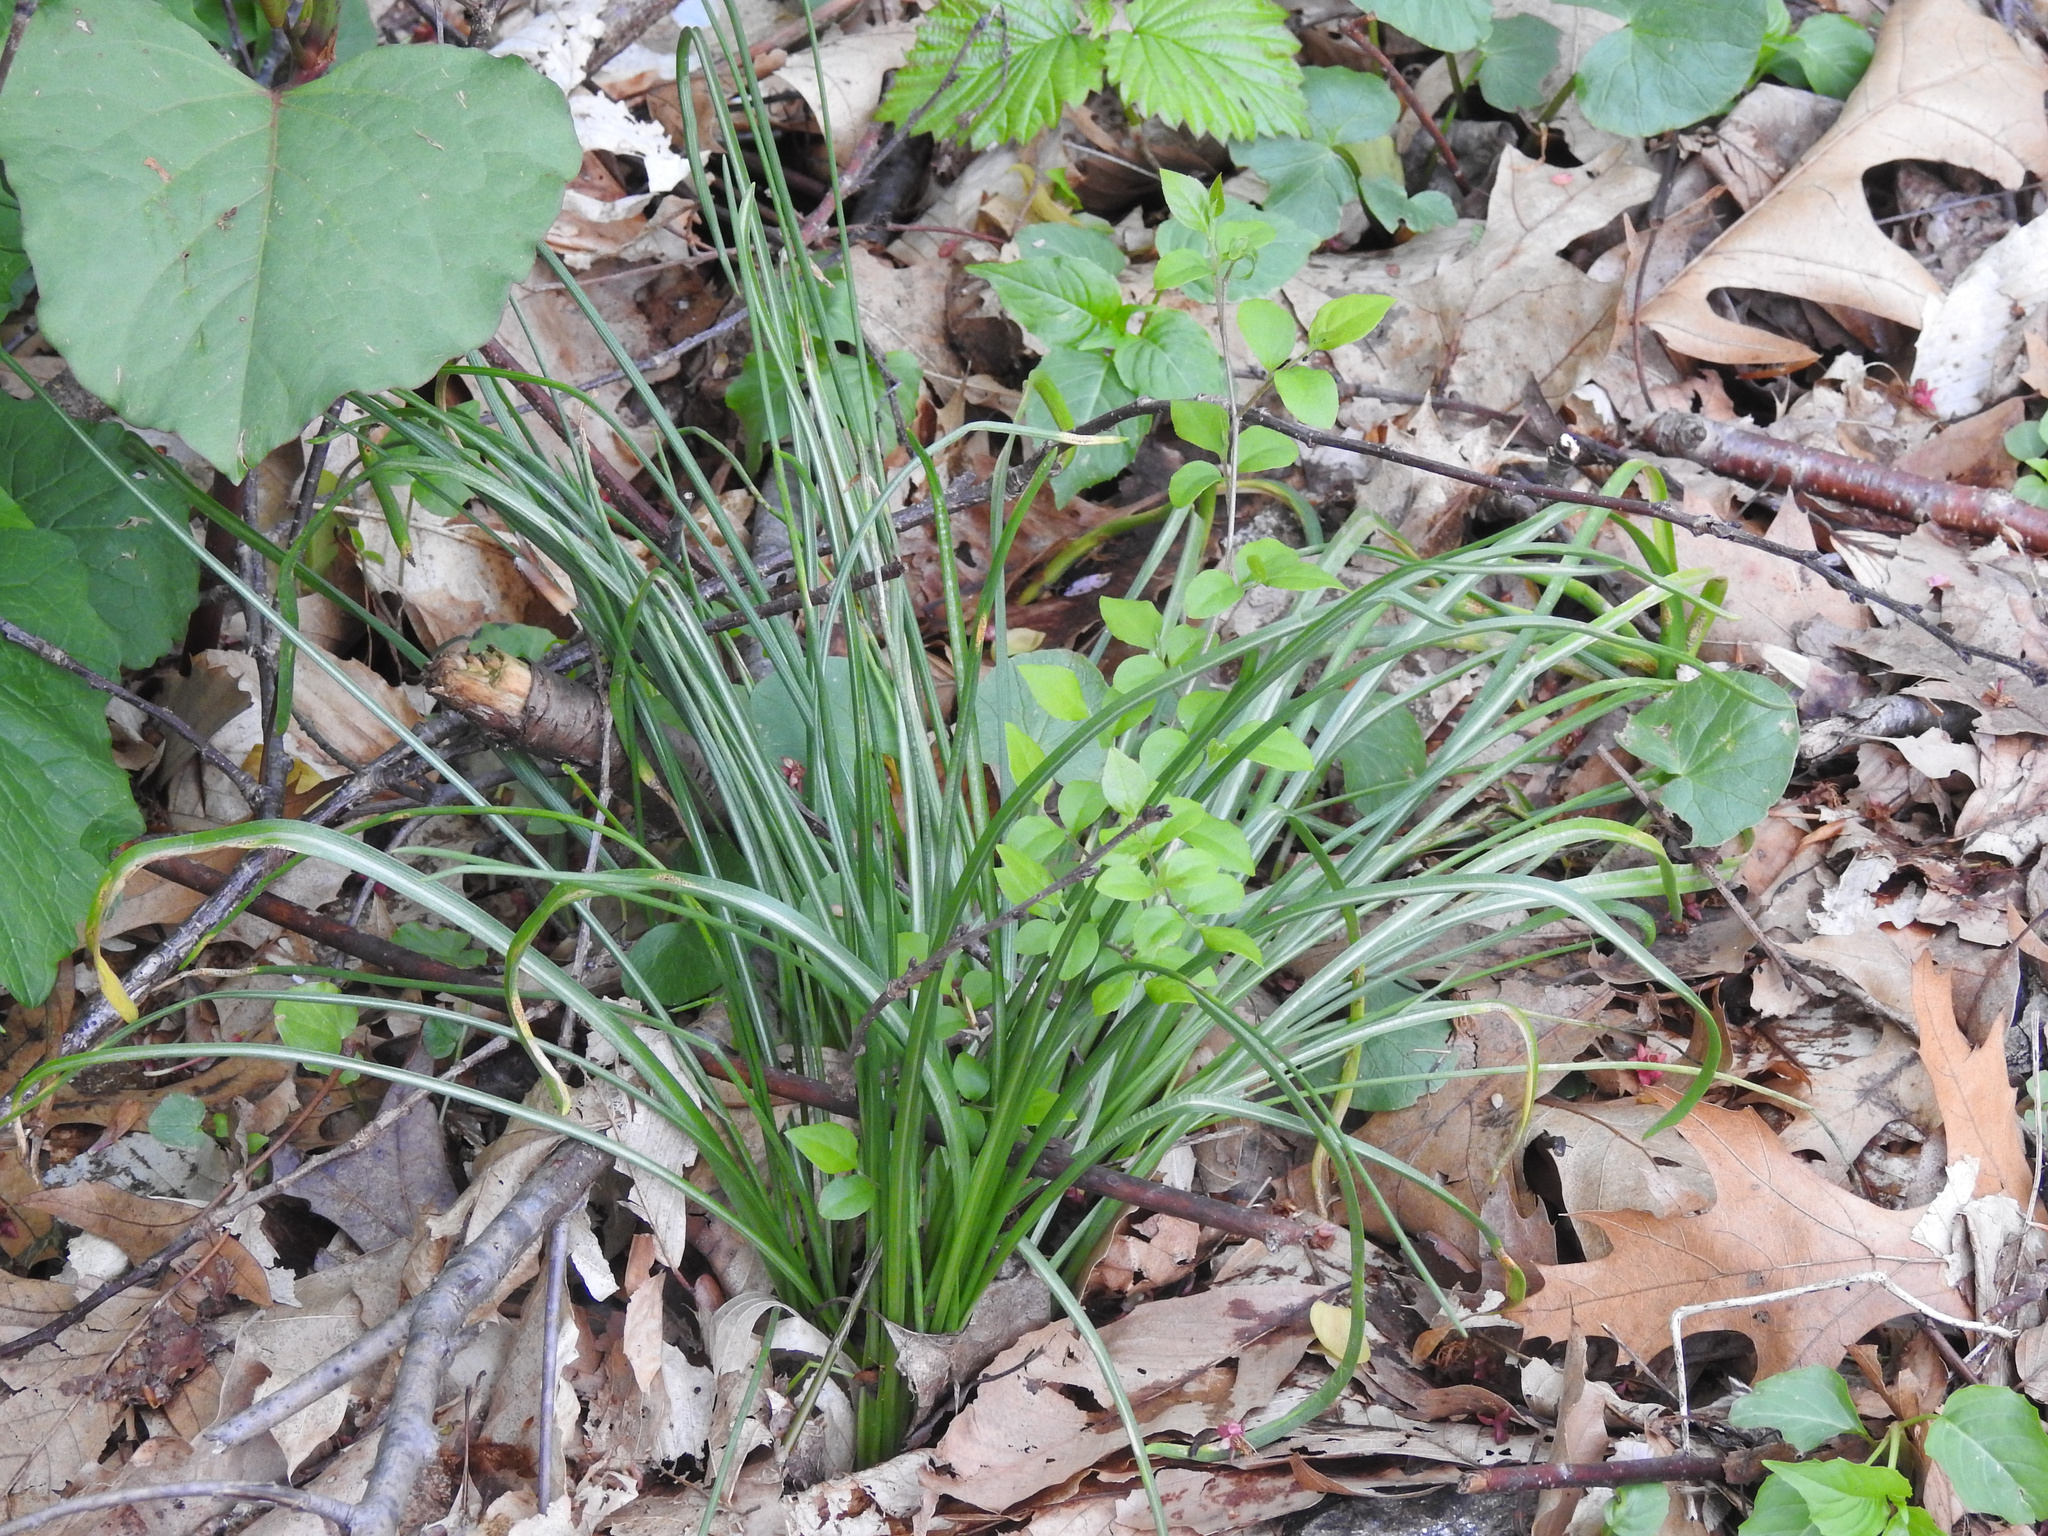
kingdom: Plantae
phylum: Tracheophyta
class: Liliopsida
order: Asparagales
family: Asparagaceae
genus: Ornithogalum
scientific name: Ornithogalum umbellatum
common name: Garden star-of-bethlehem
